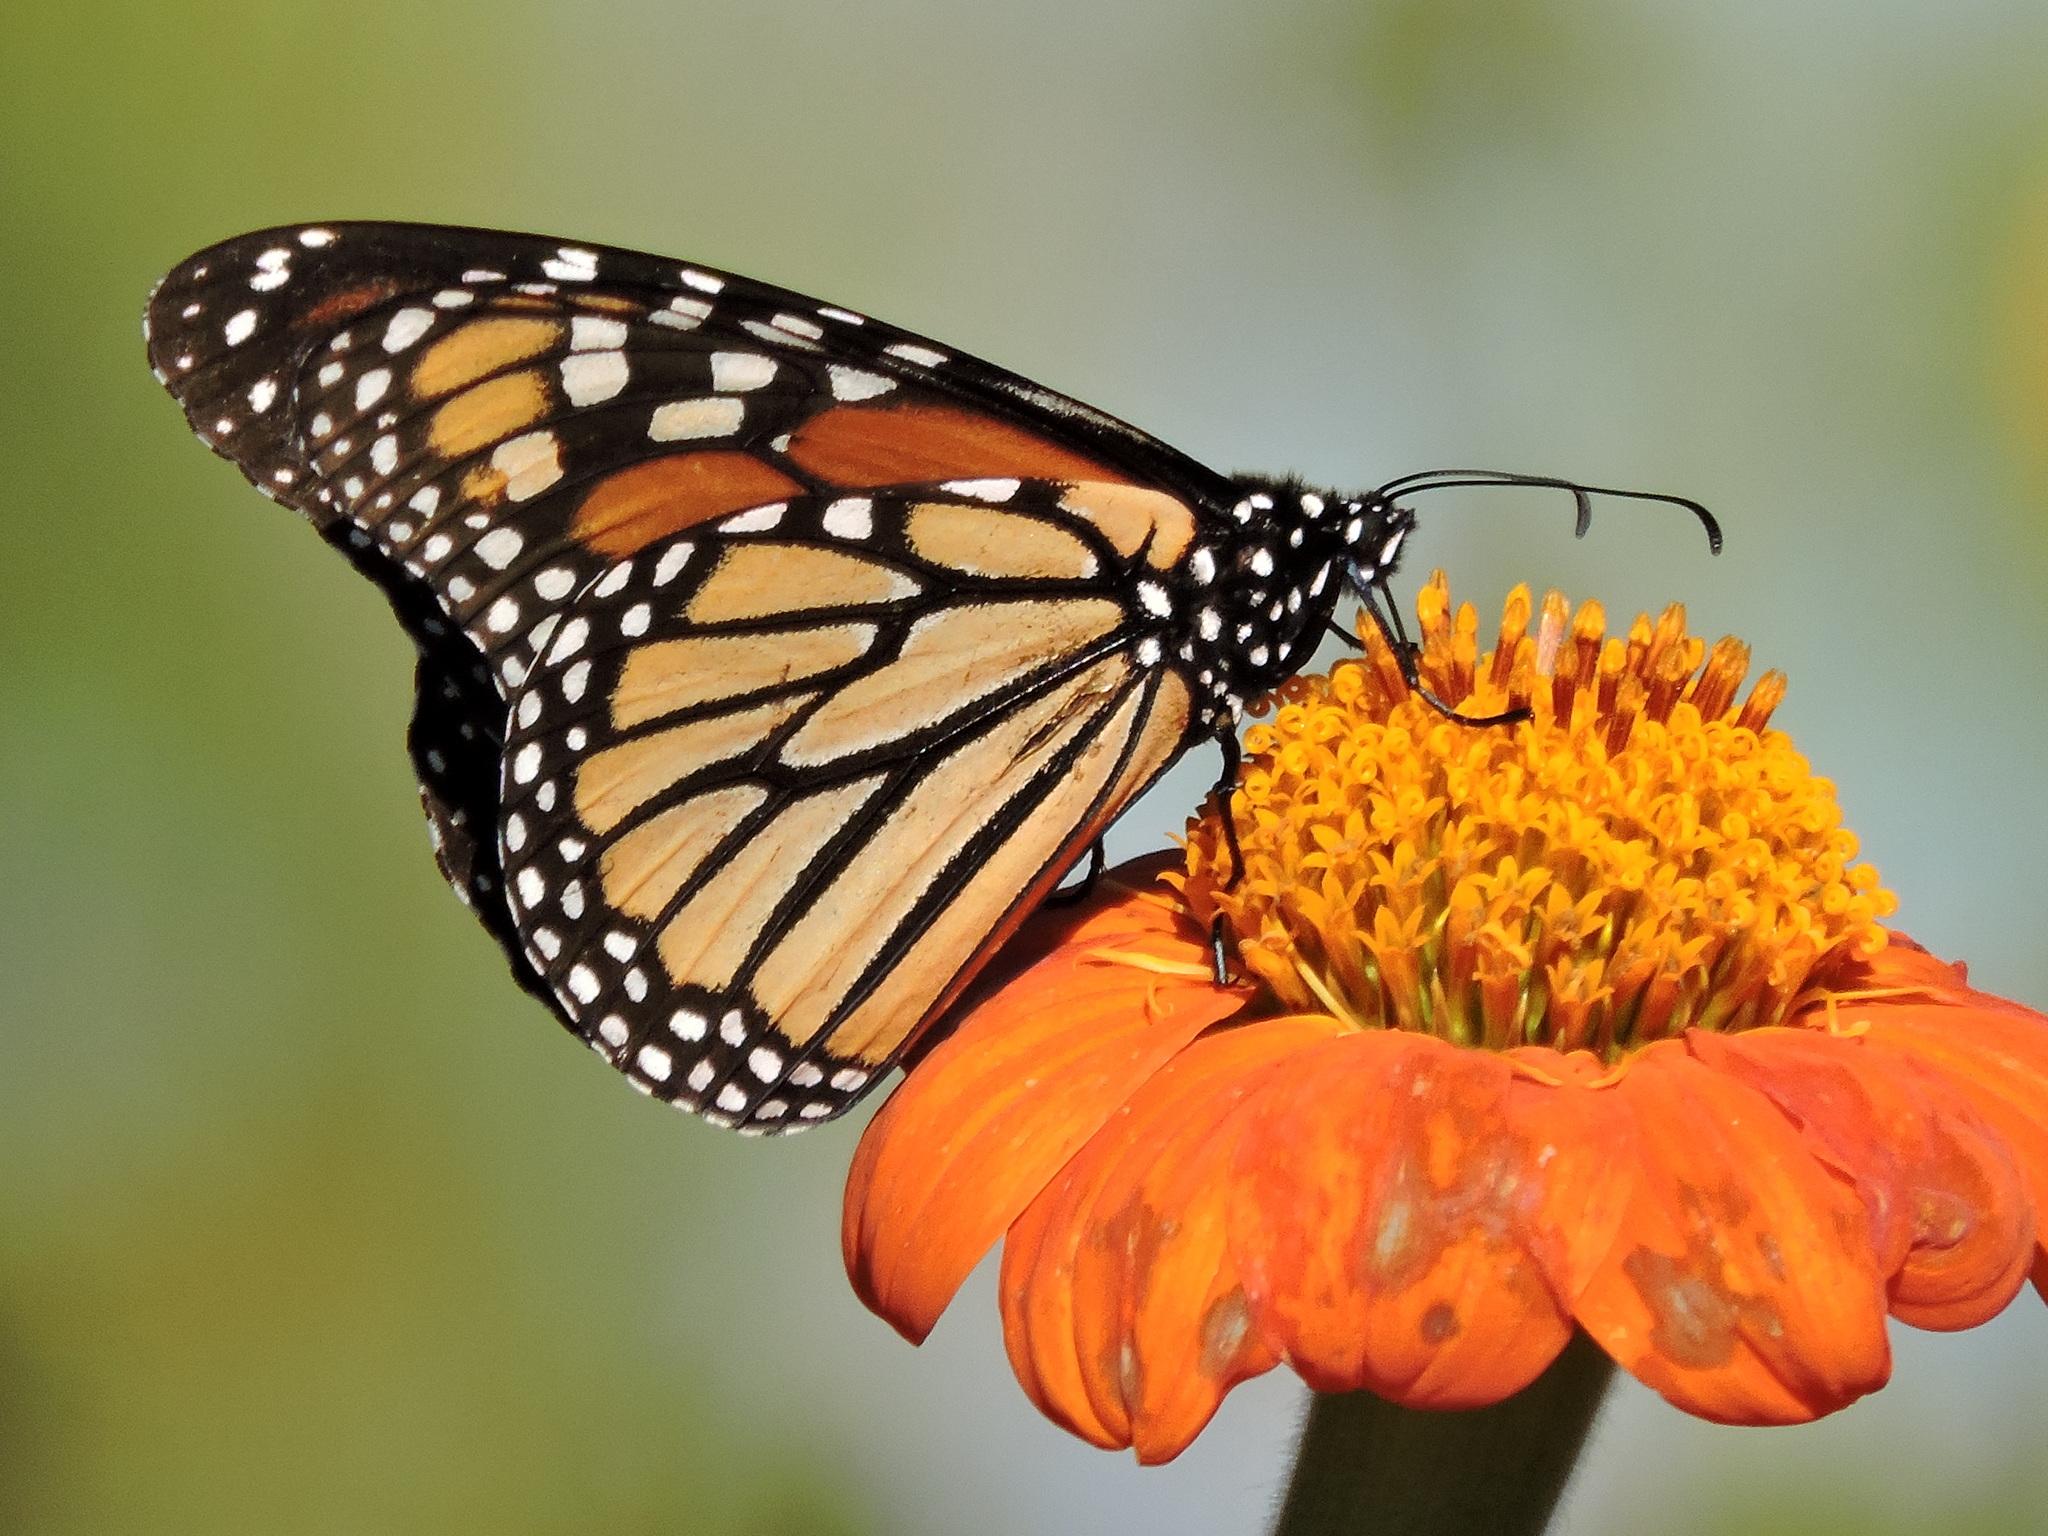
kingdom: Animalia
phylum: Arthropoda
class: Insecta
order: Lepidoptera
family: Nymphalidae
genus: Danaus
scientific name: Danaus plexippus
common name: Monarch
